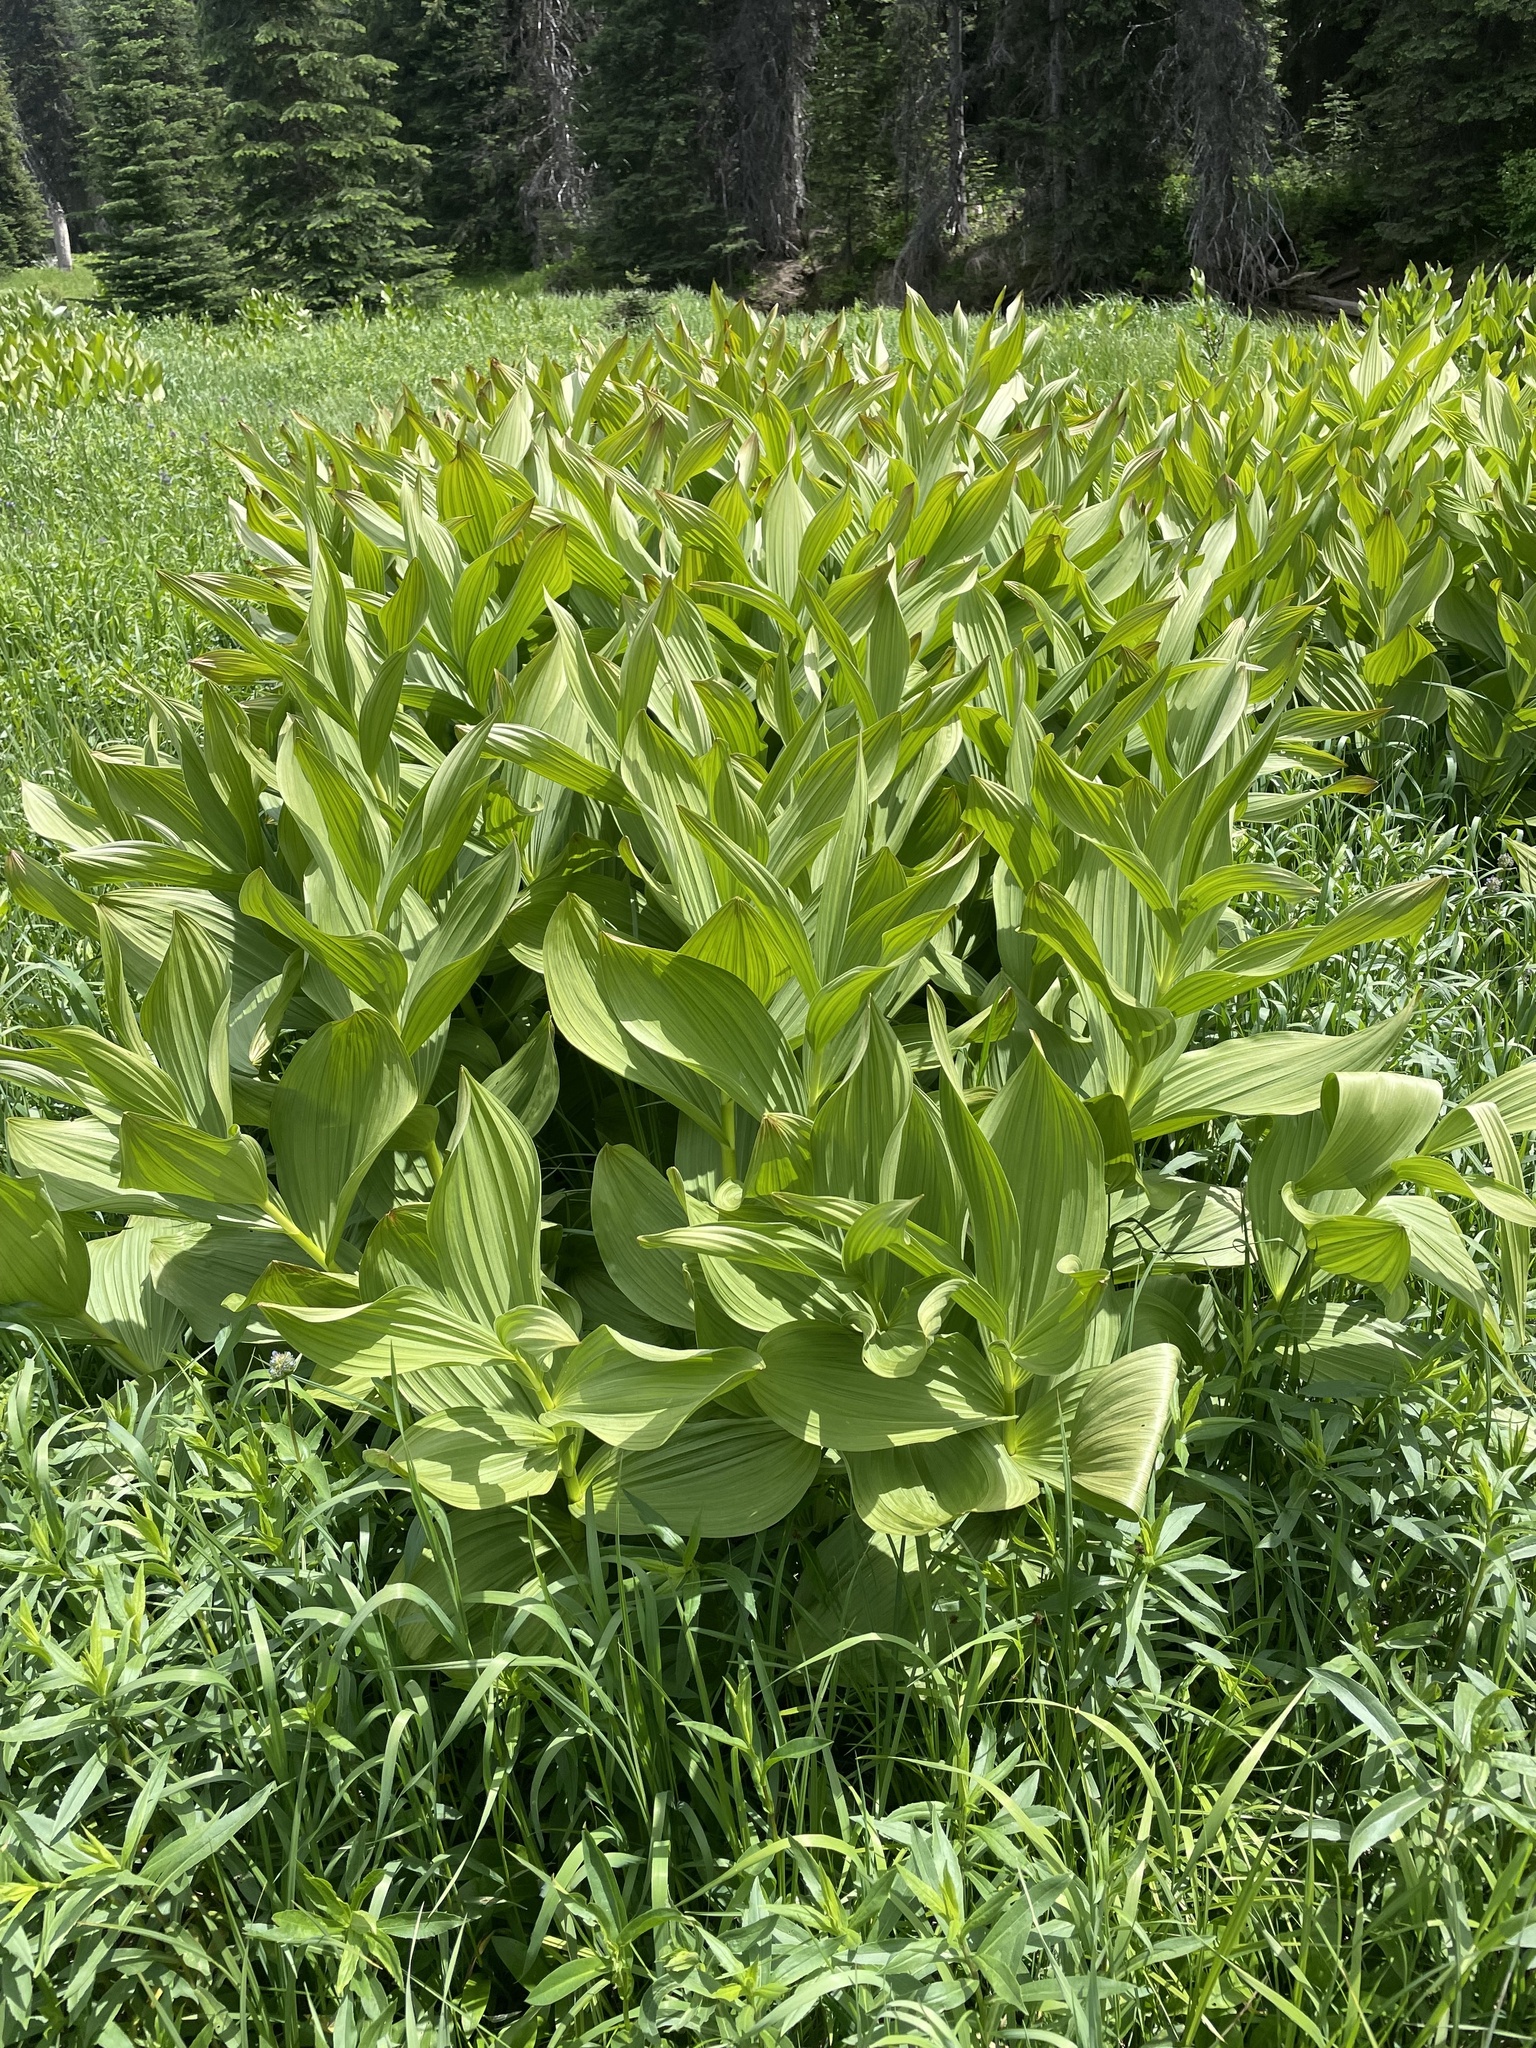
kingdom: Plantae
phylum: Tracheophyta
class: Liliopsida
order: Liliales
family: Melanthiaceae
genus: Veratrum
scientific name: Veratrum californicum
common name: California veratrum
